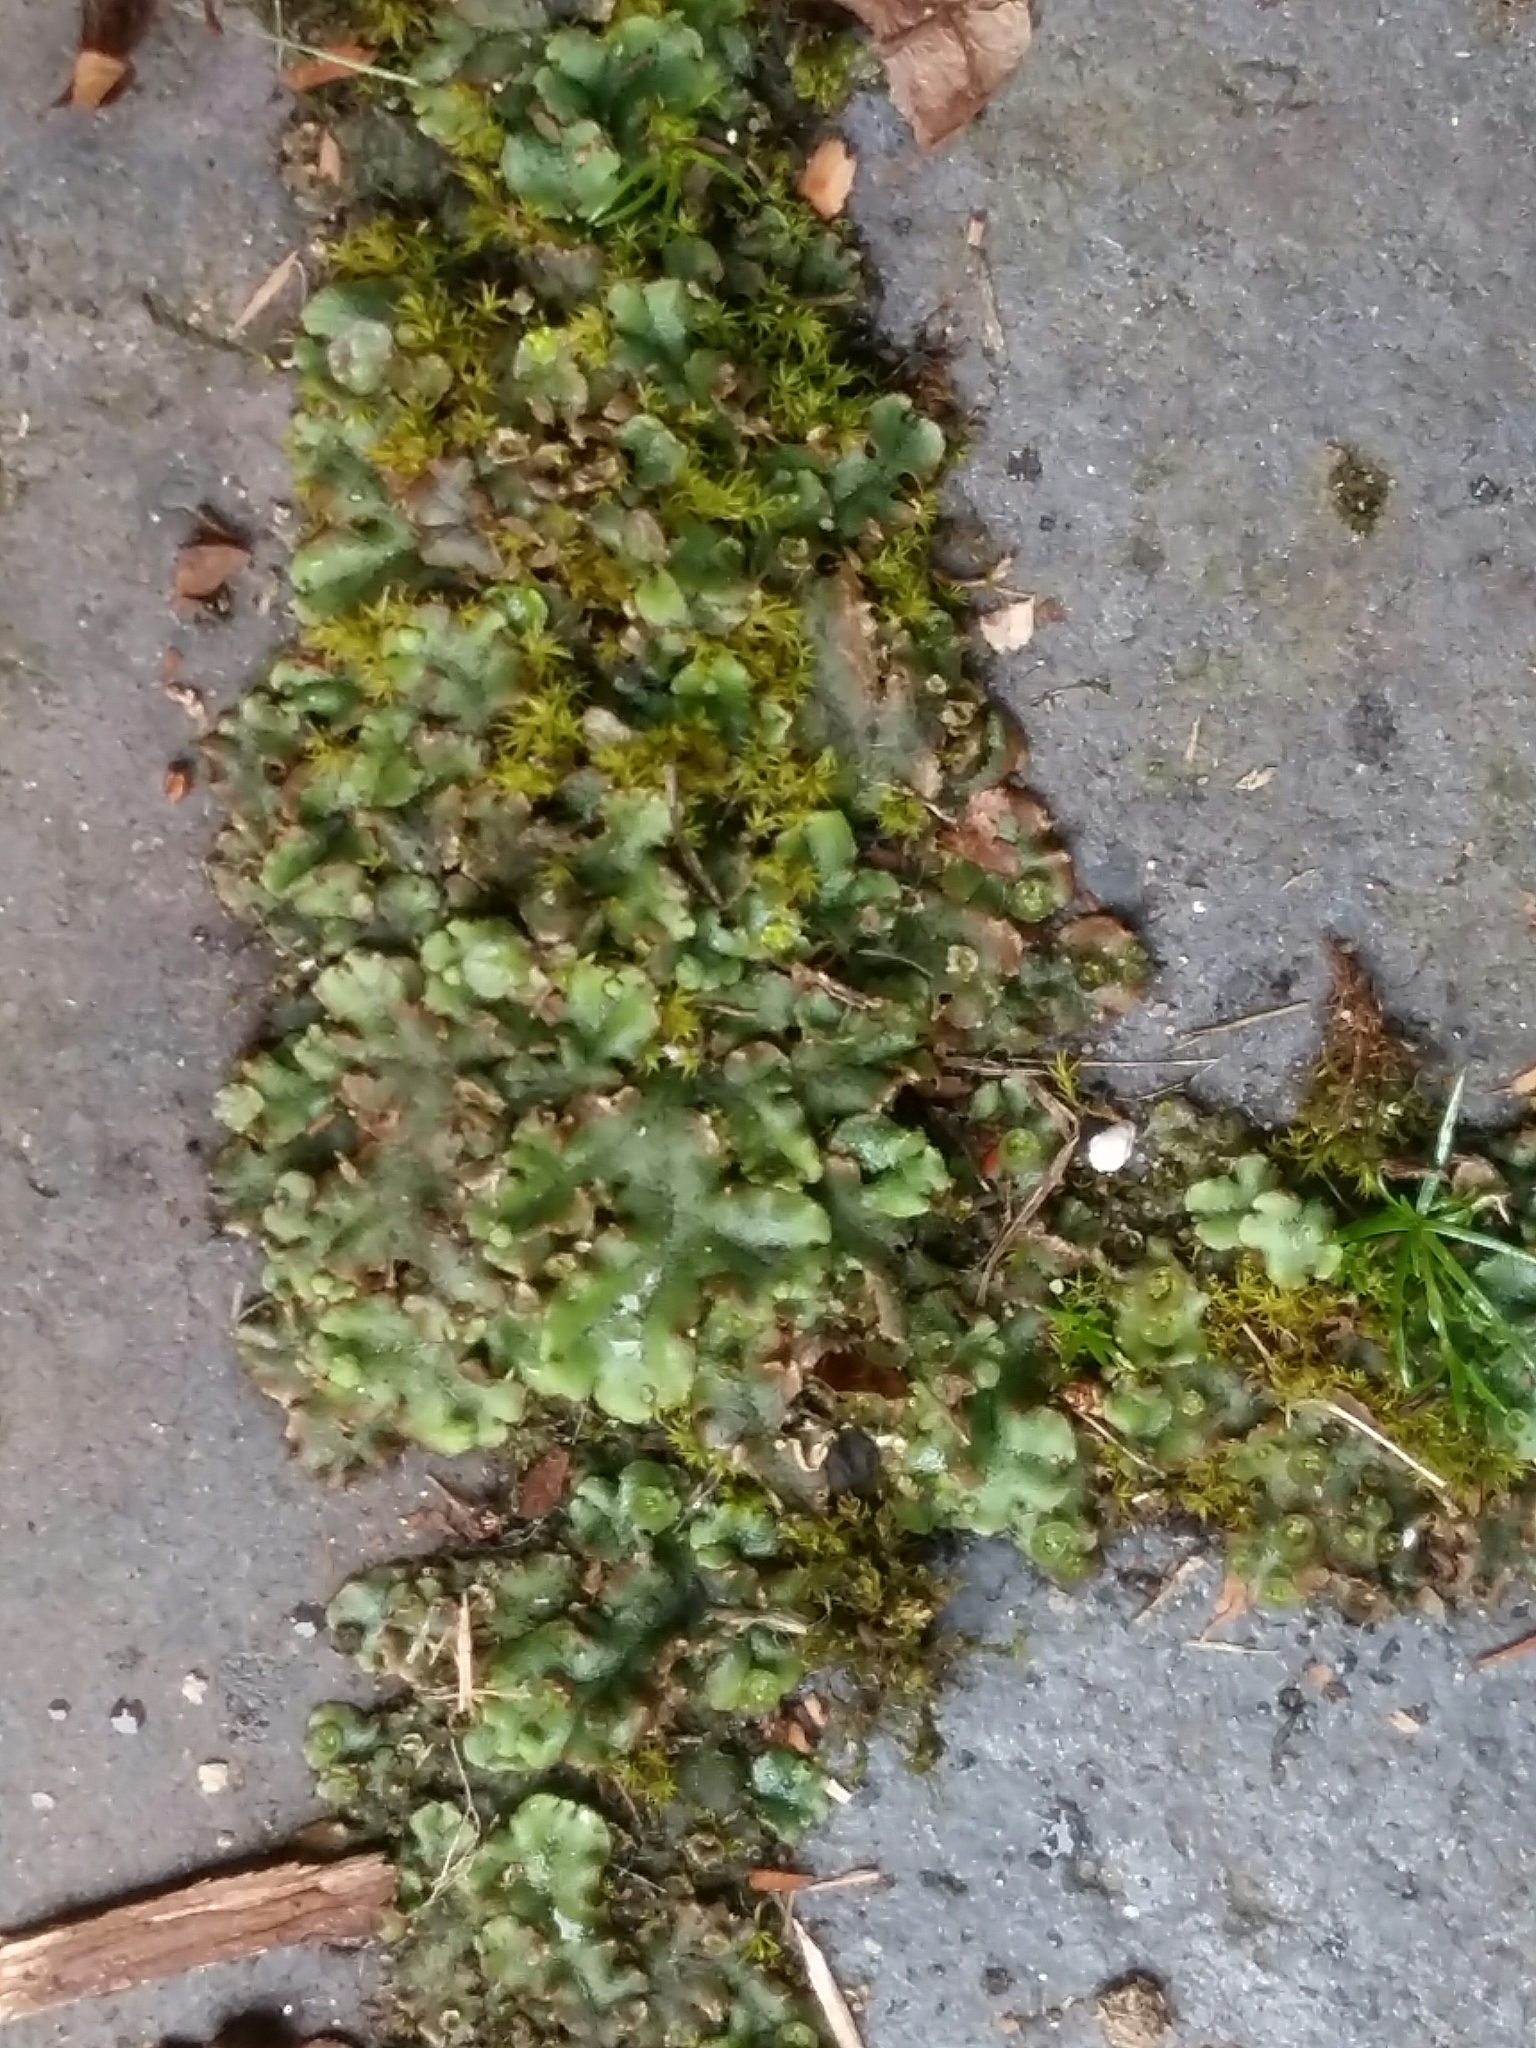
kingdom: Plantae
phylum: Marchantiophyta
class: Marchantiopsida
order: Marchantiales
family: Marchantiaceae
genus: Marchantia
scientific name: Marchantia polymorpha
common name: Common liverwort
